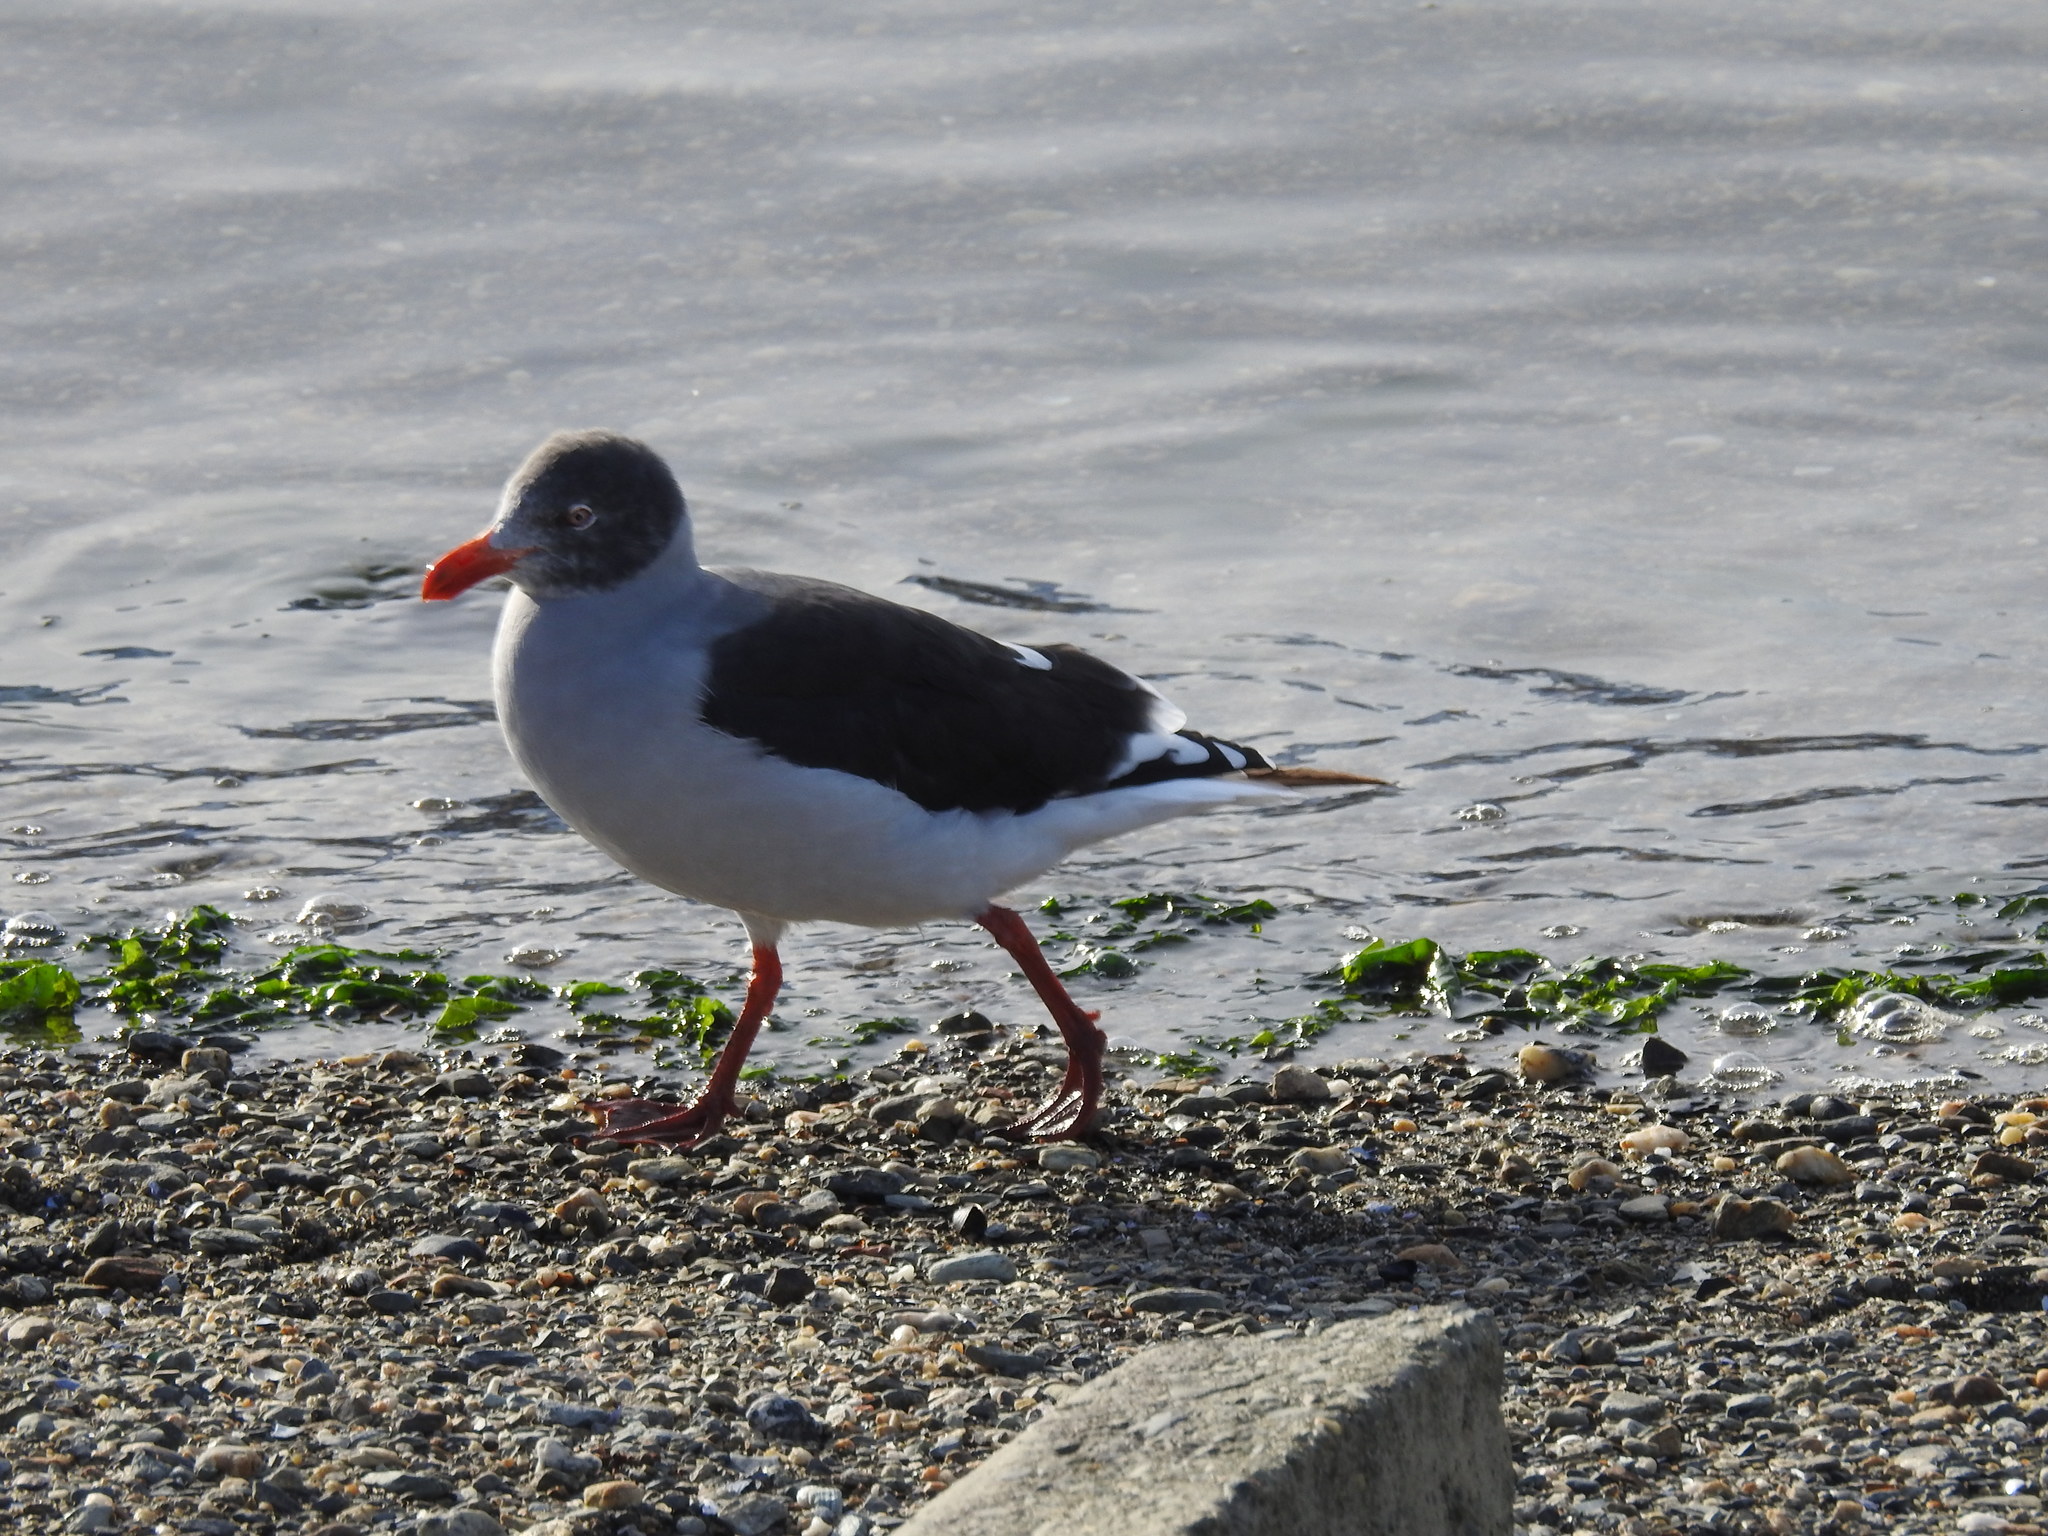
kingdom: Animalia
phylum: Chordata
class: Aves
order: Charadriiformes
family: Laridae
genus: Leucophaeus
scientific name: Leucophaeus scoresbii
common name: Dolphin gull
